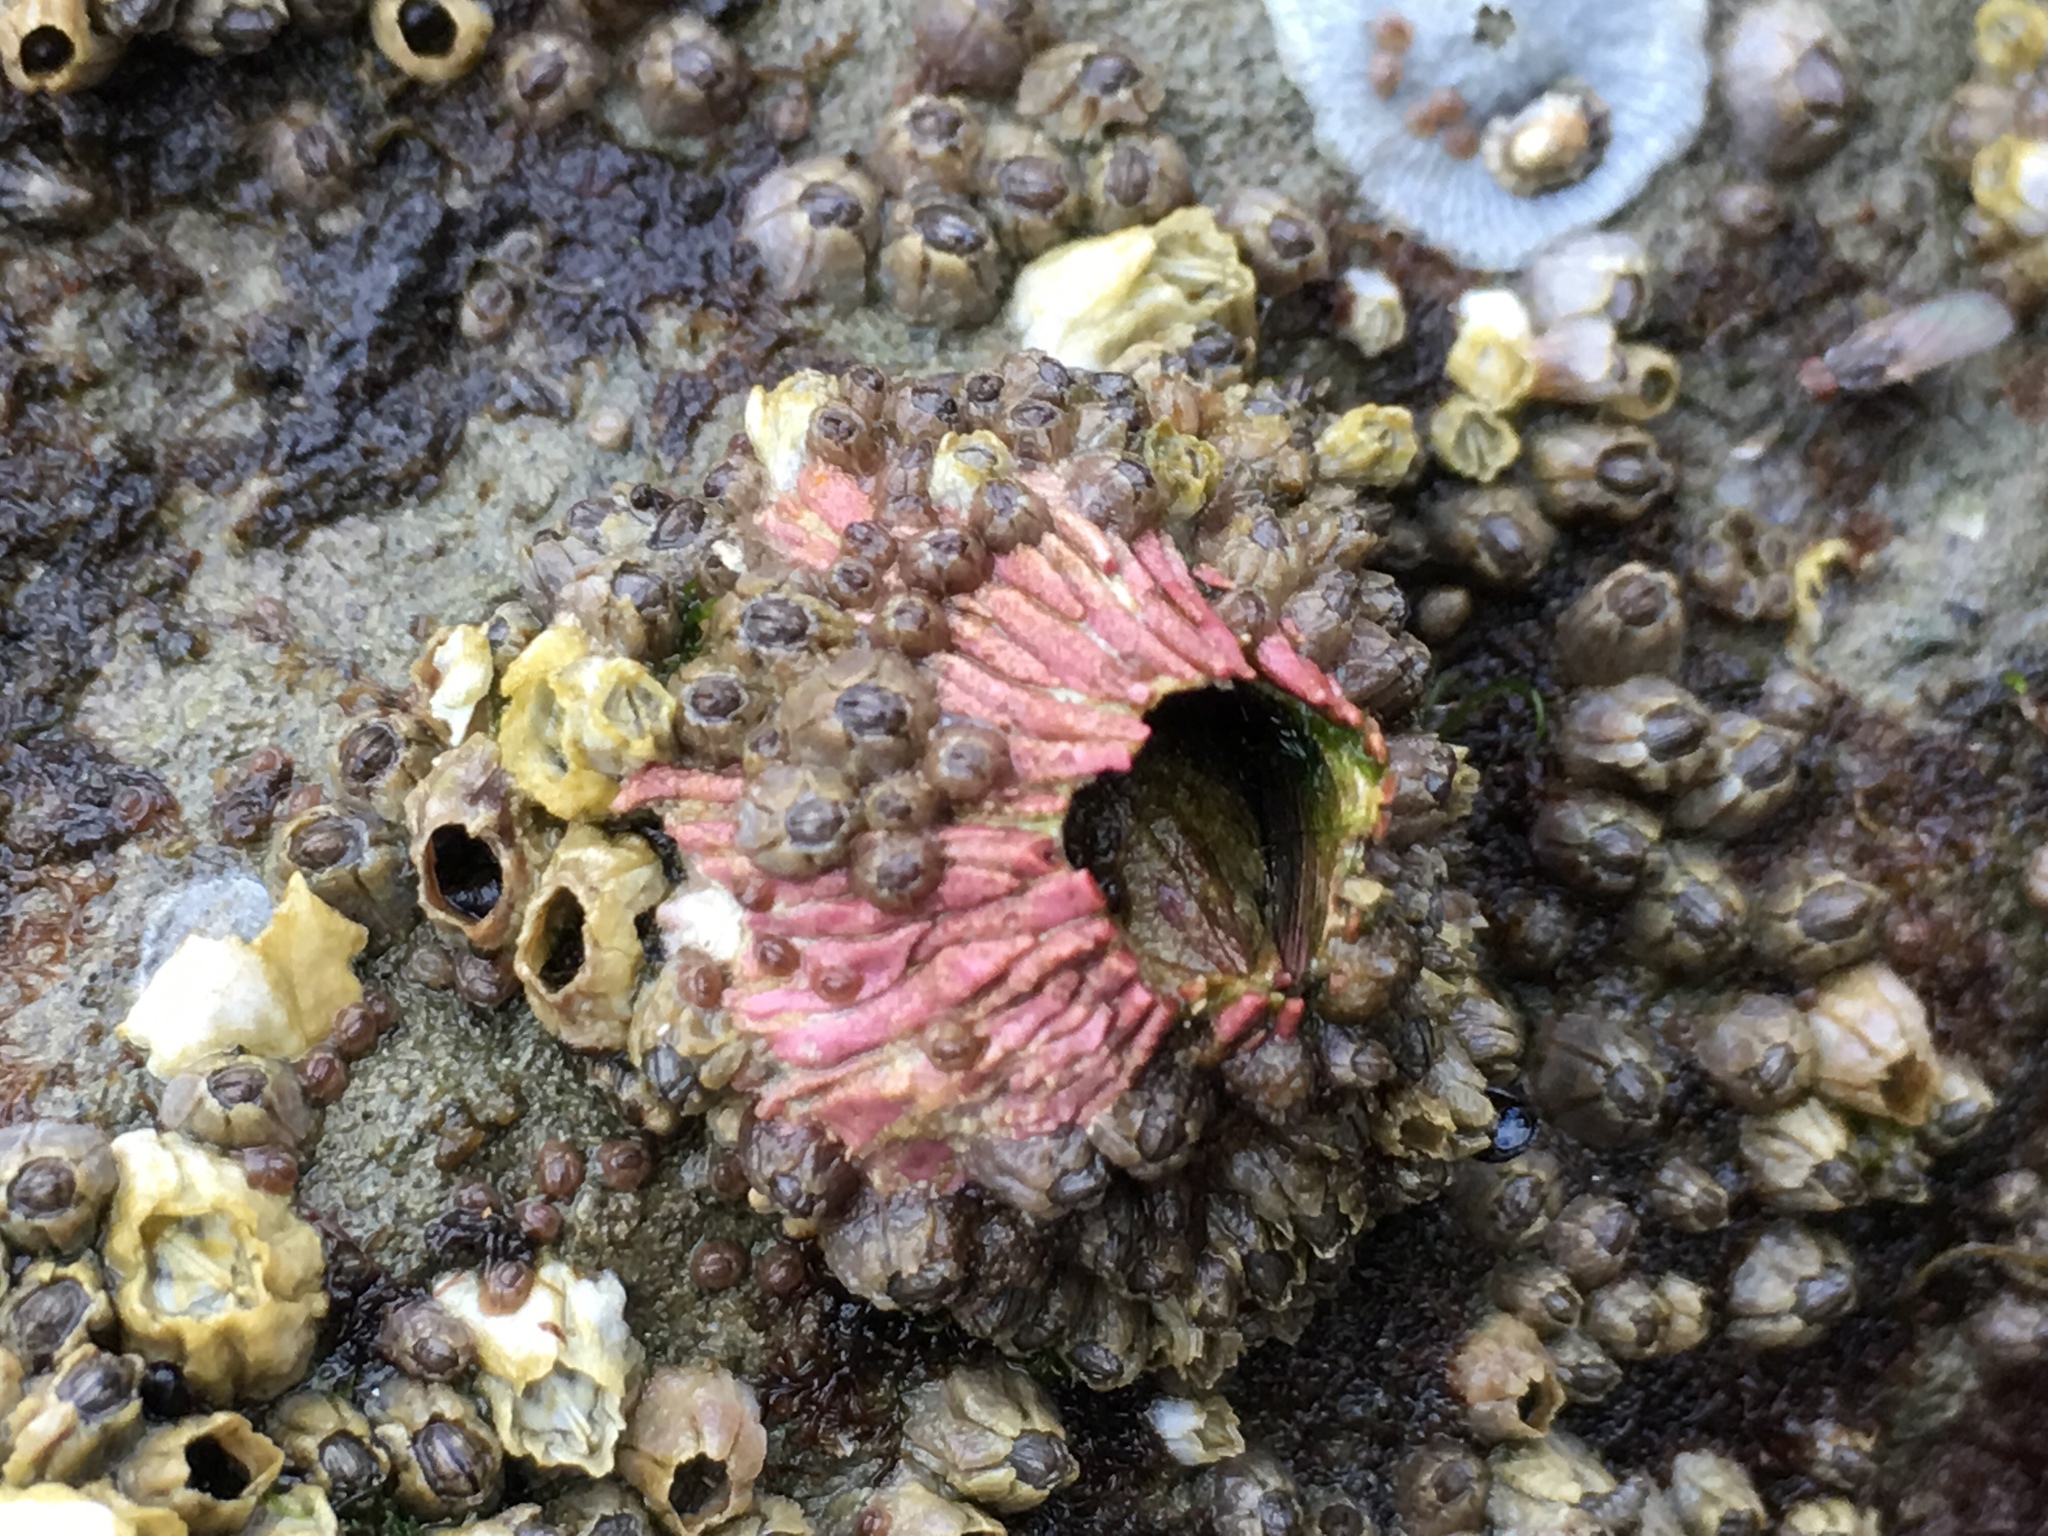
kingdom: Animalia
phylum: Arthropoda
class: Maxillopoda
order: Sessilia
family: Tetraclitidae
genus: Tetraclita
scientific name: Tetraclita rubescens
